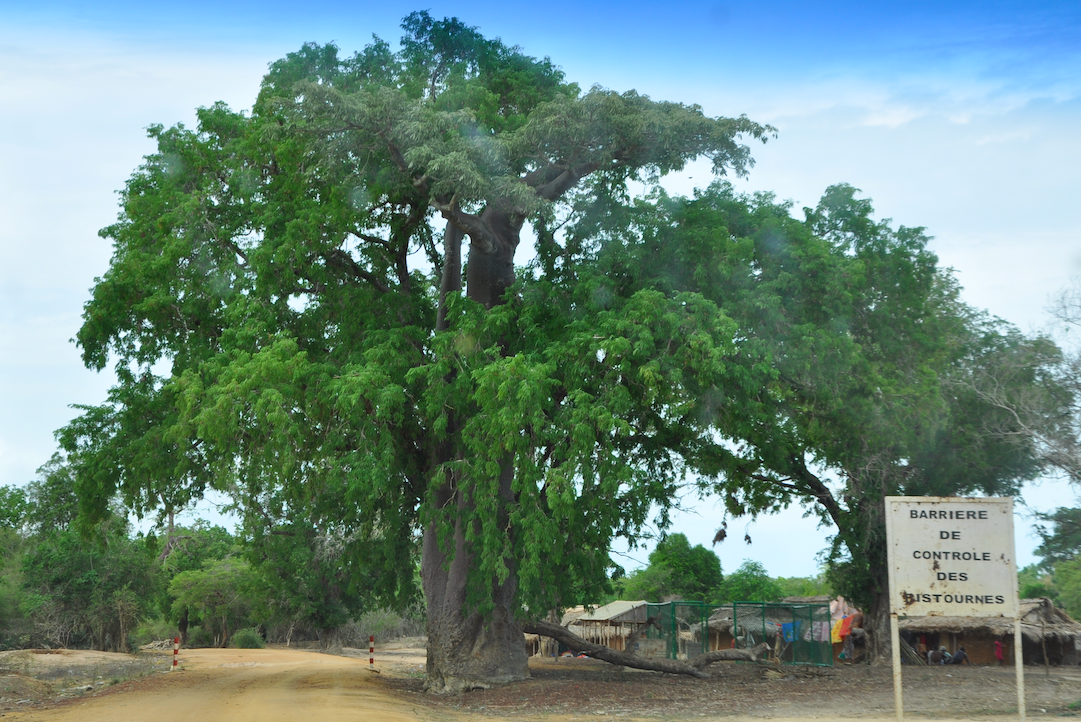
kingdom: Plantae
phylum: Tracheophyta
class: Magnoliopsida
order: Malvales
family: Malvaceae
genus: Adansonia
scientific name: Adansonia za
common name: Za baobab
